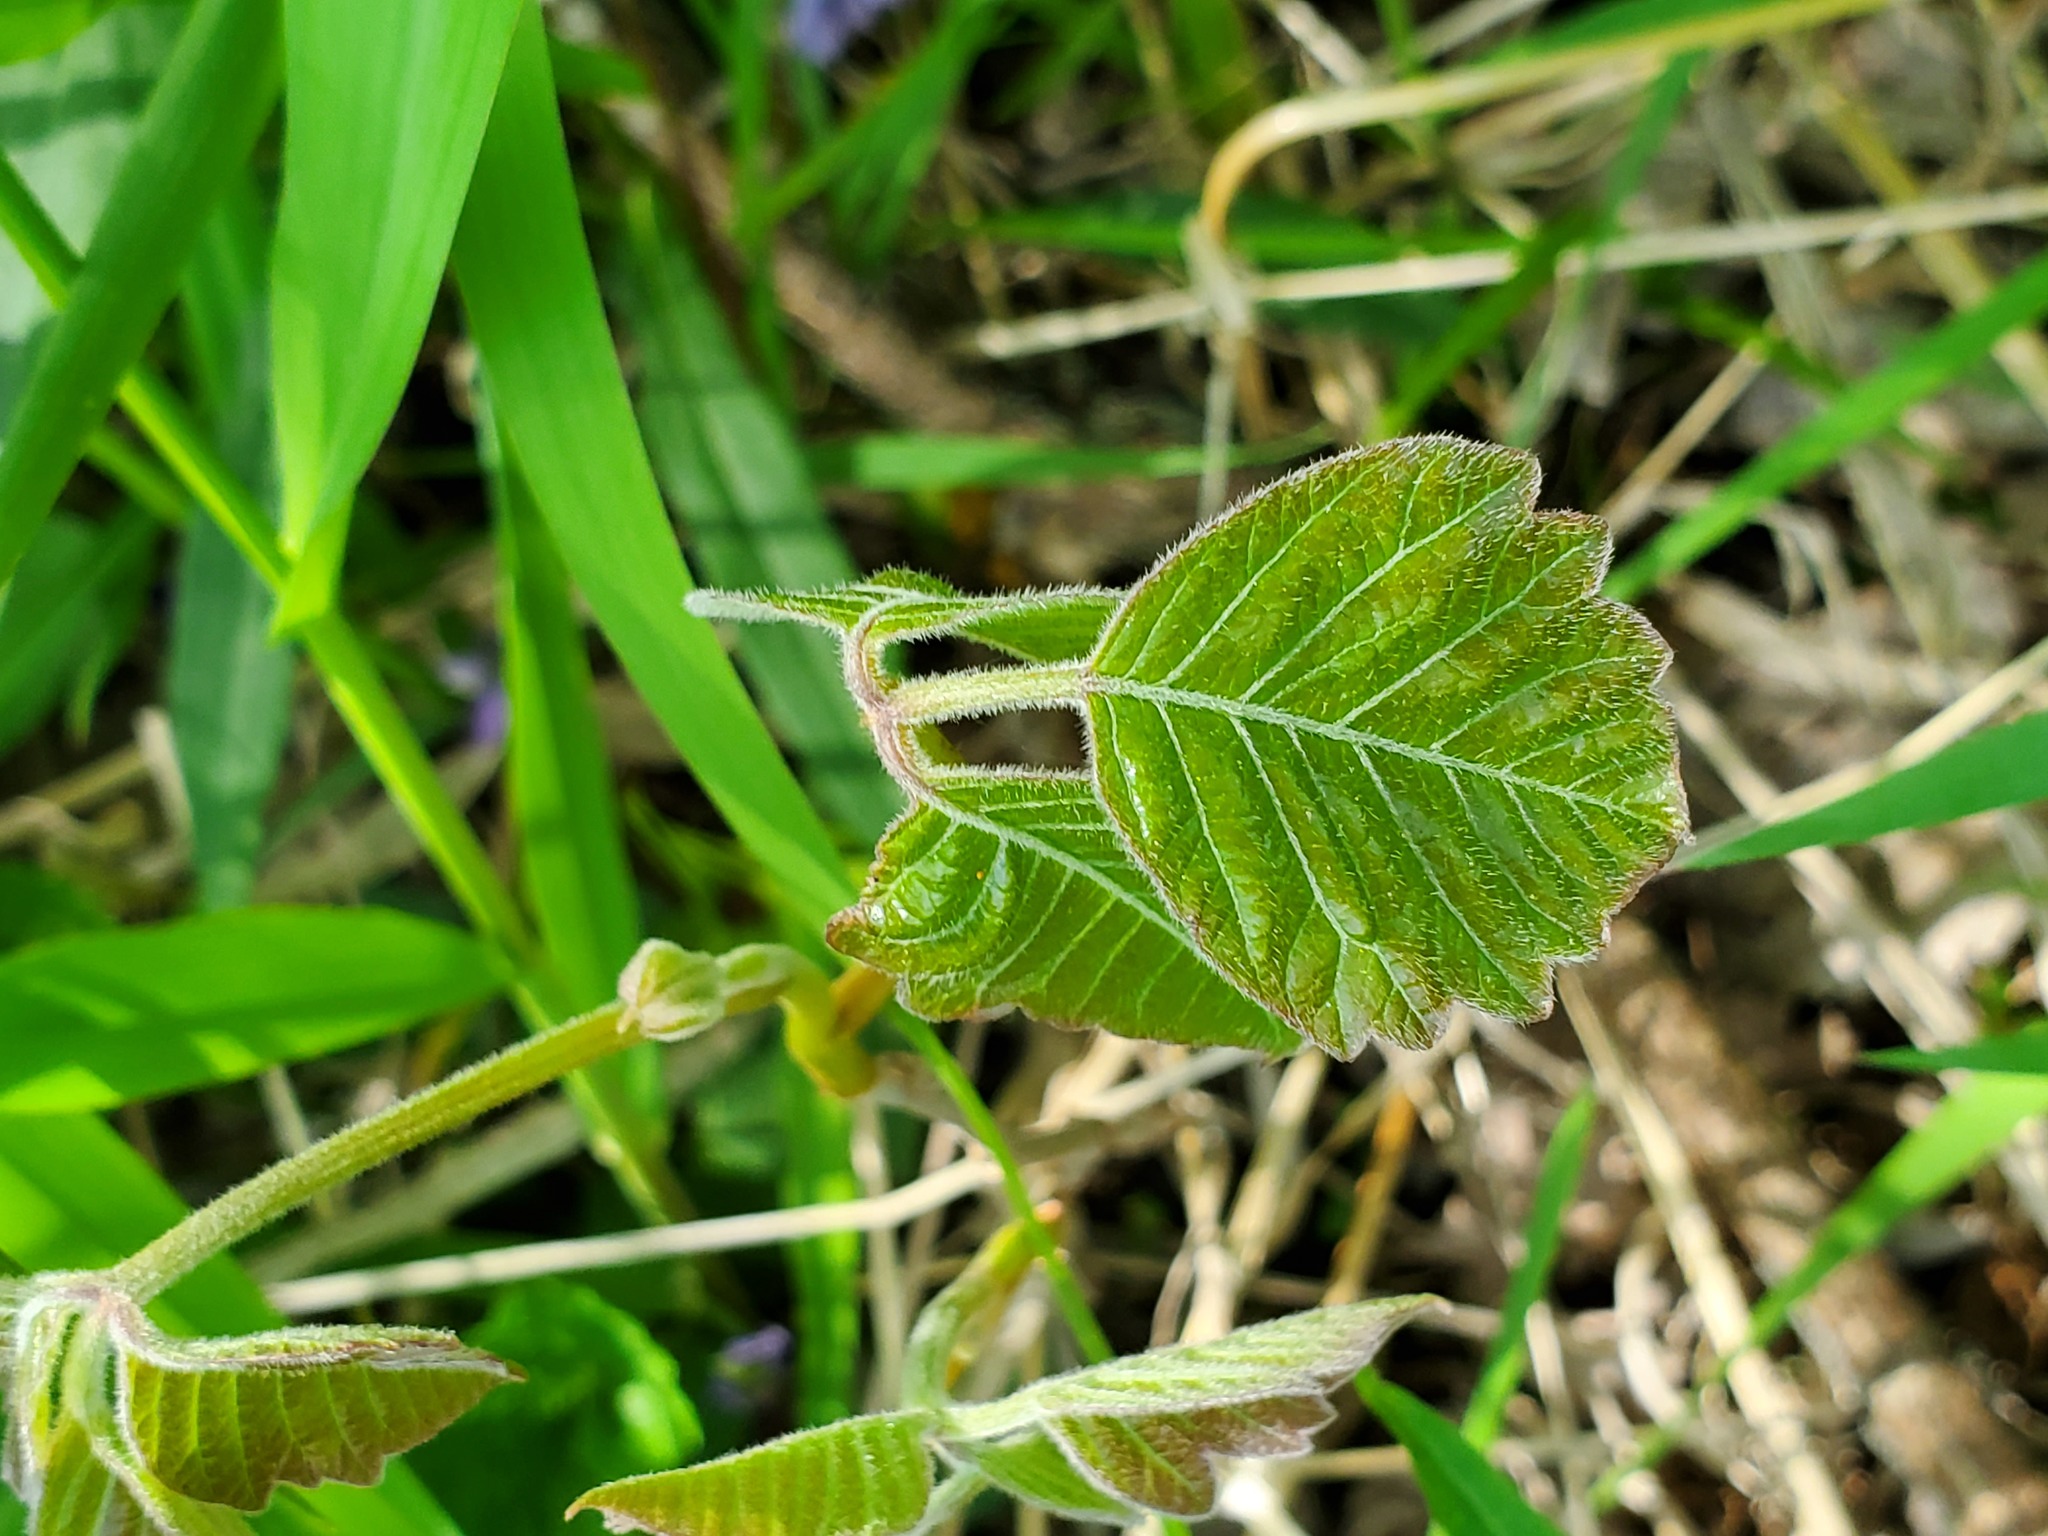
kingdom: Plantae
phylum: Tracheophyta
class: Magnoliopsida
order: Sapindales
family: Anacardiaceae
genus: Toxicodendron
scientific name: Toxicodendron radicans
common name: Poison ivy
